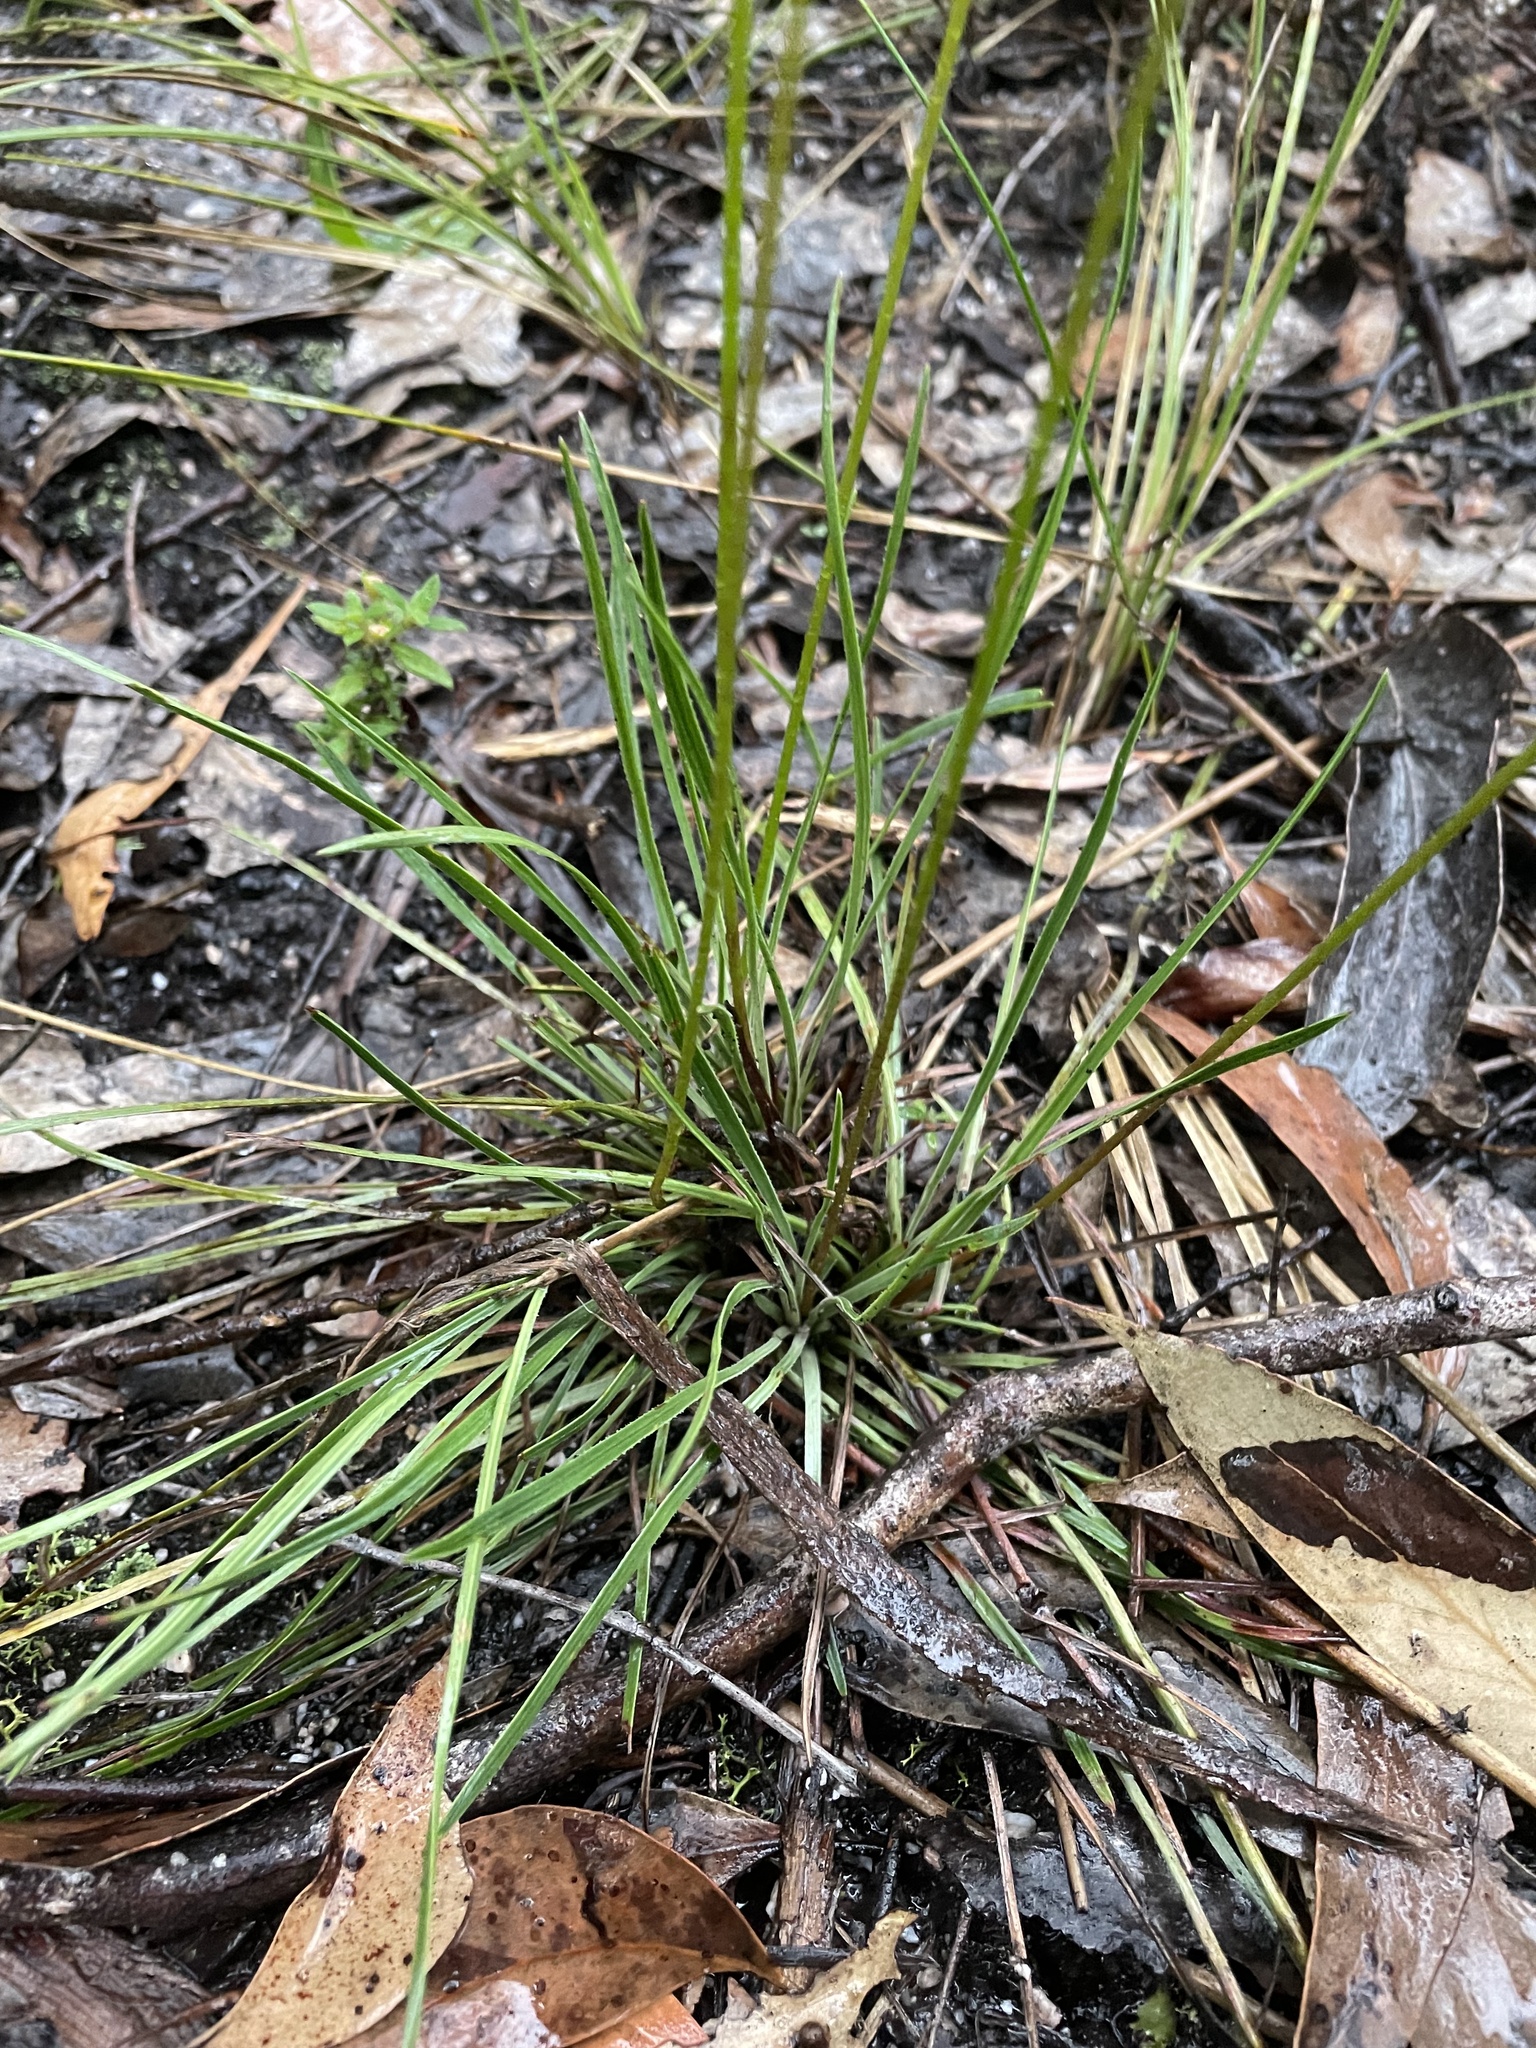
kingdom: Plantae
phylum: Tracheophyta
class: Magnoliopsida
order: Asterales
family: Stylidiaceae
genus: Stylidium
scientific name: Stylidium graminifolium
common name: Grass triggerplant
